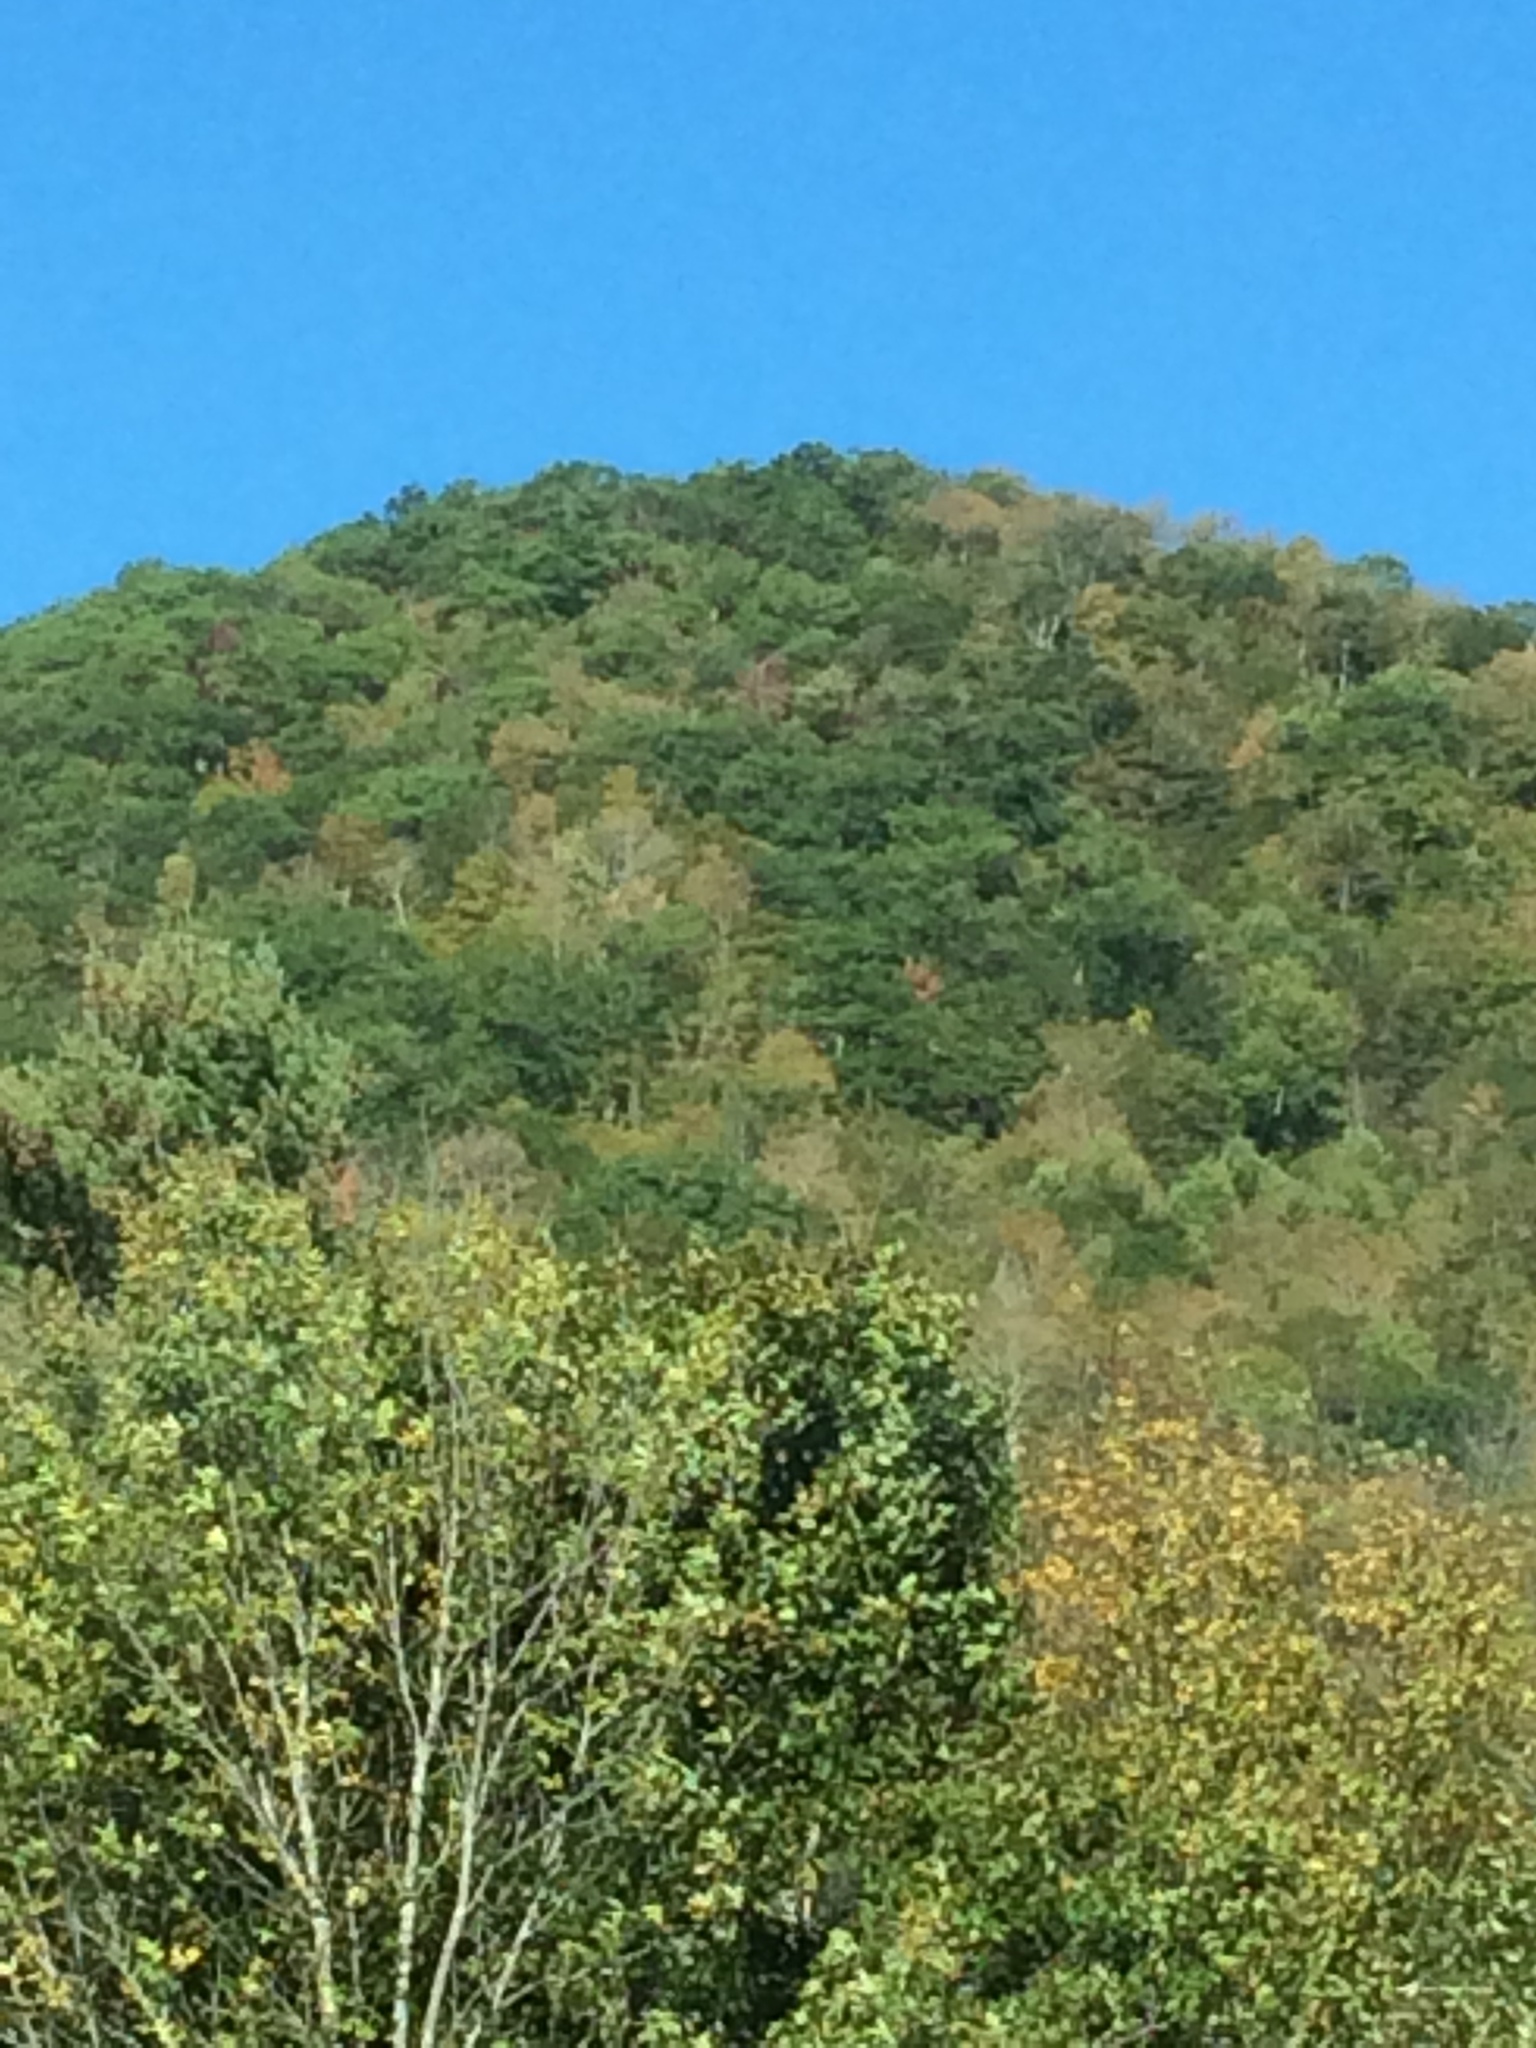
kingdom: Plantae
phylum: Tracheophyta
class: Magnoliopsida
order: Fagales
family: Fagaceae
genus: Quercus
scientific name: Quercus rubra
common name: Red oak
